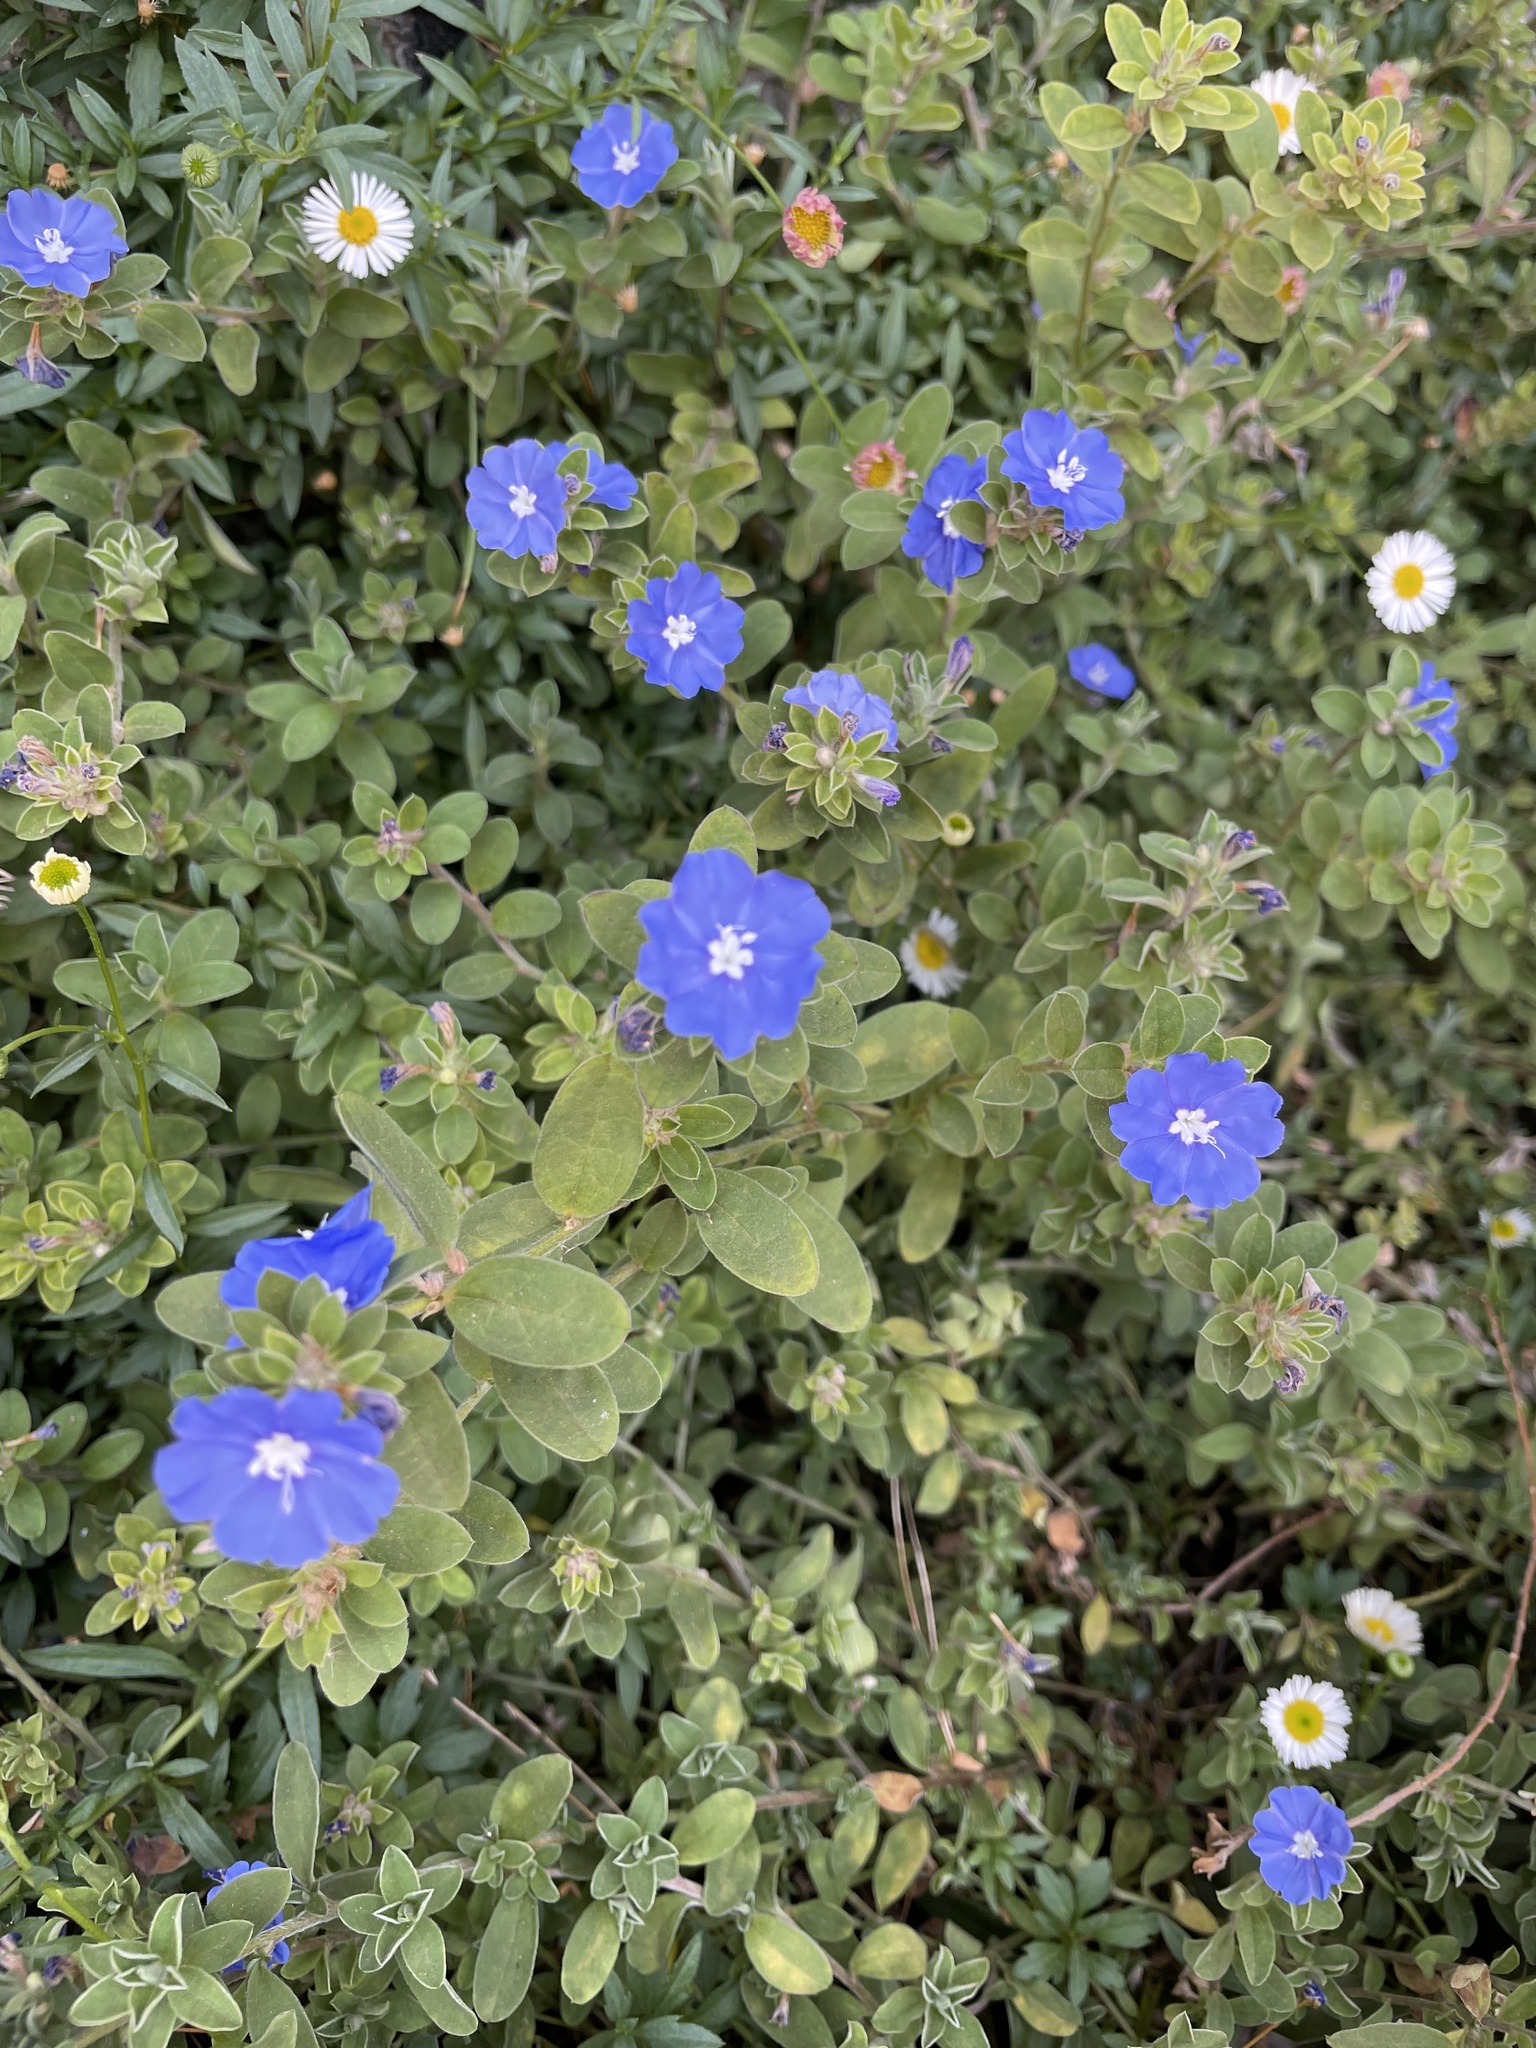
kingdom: Plantae
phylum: Tracheophyta
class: Magnoliopsida
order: Solanales
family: Convolvulaceae
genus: Evolvulus
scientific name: Evolvulus alsinoides
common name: Slender dwarf morning-glory
